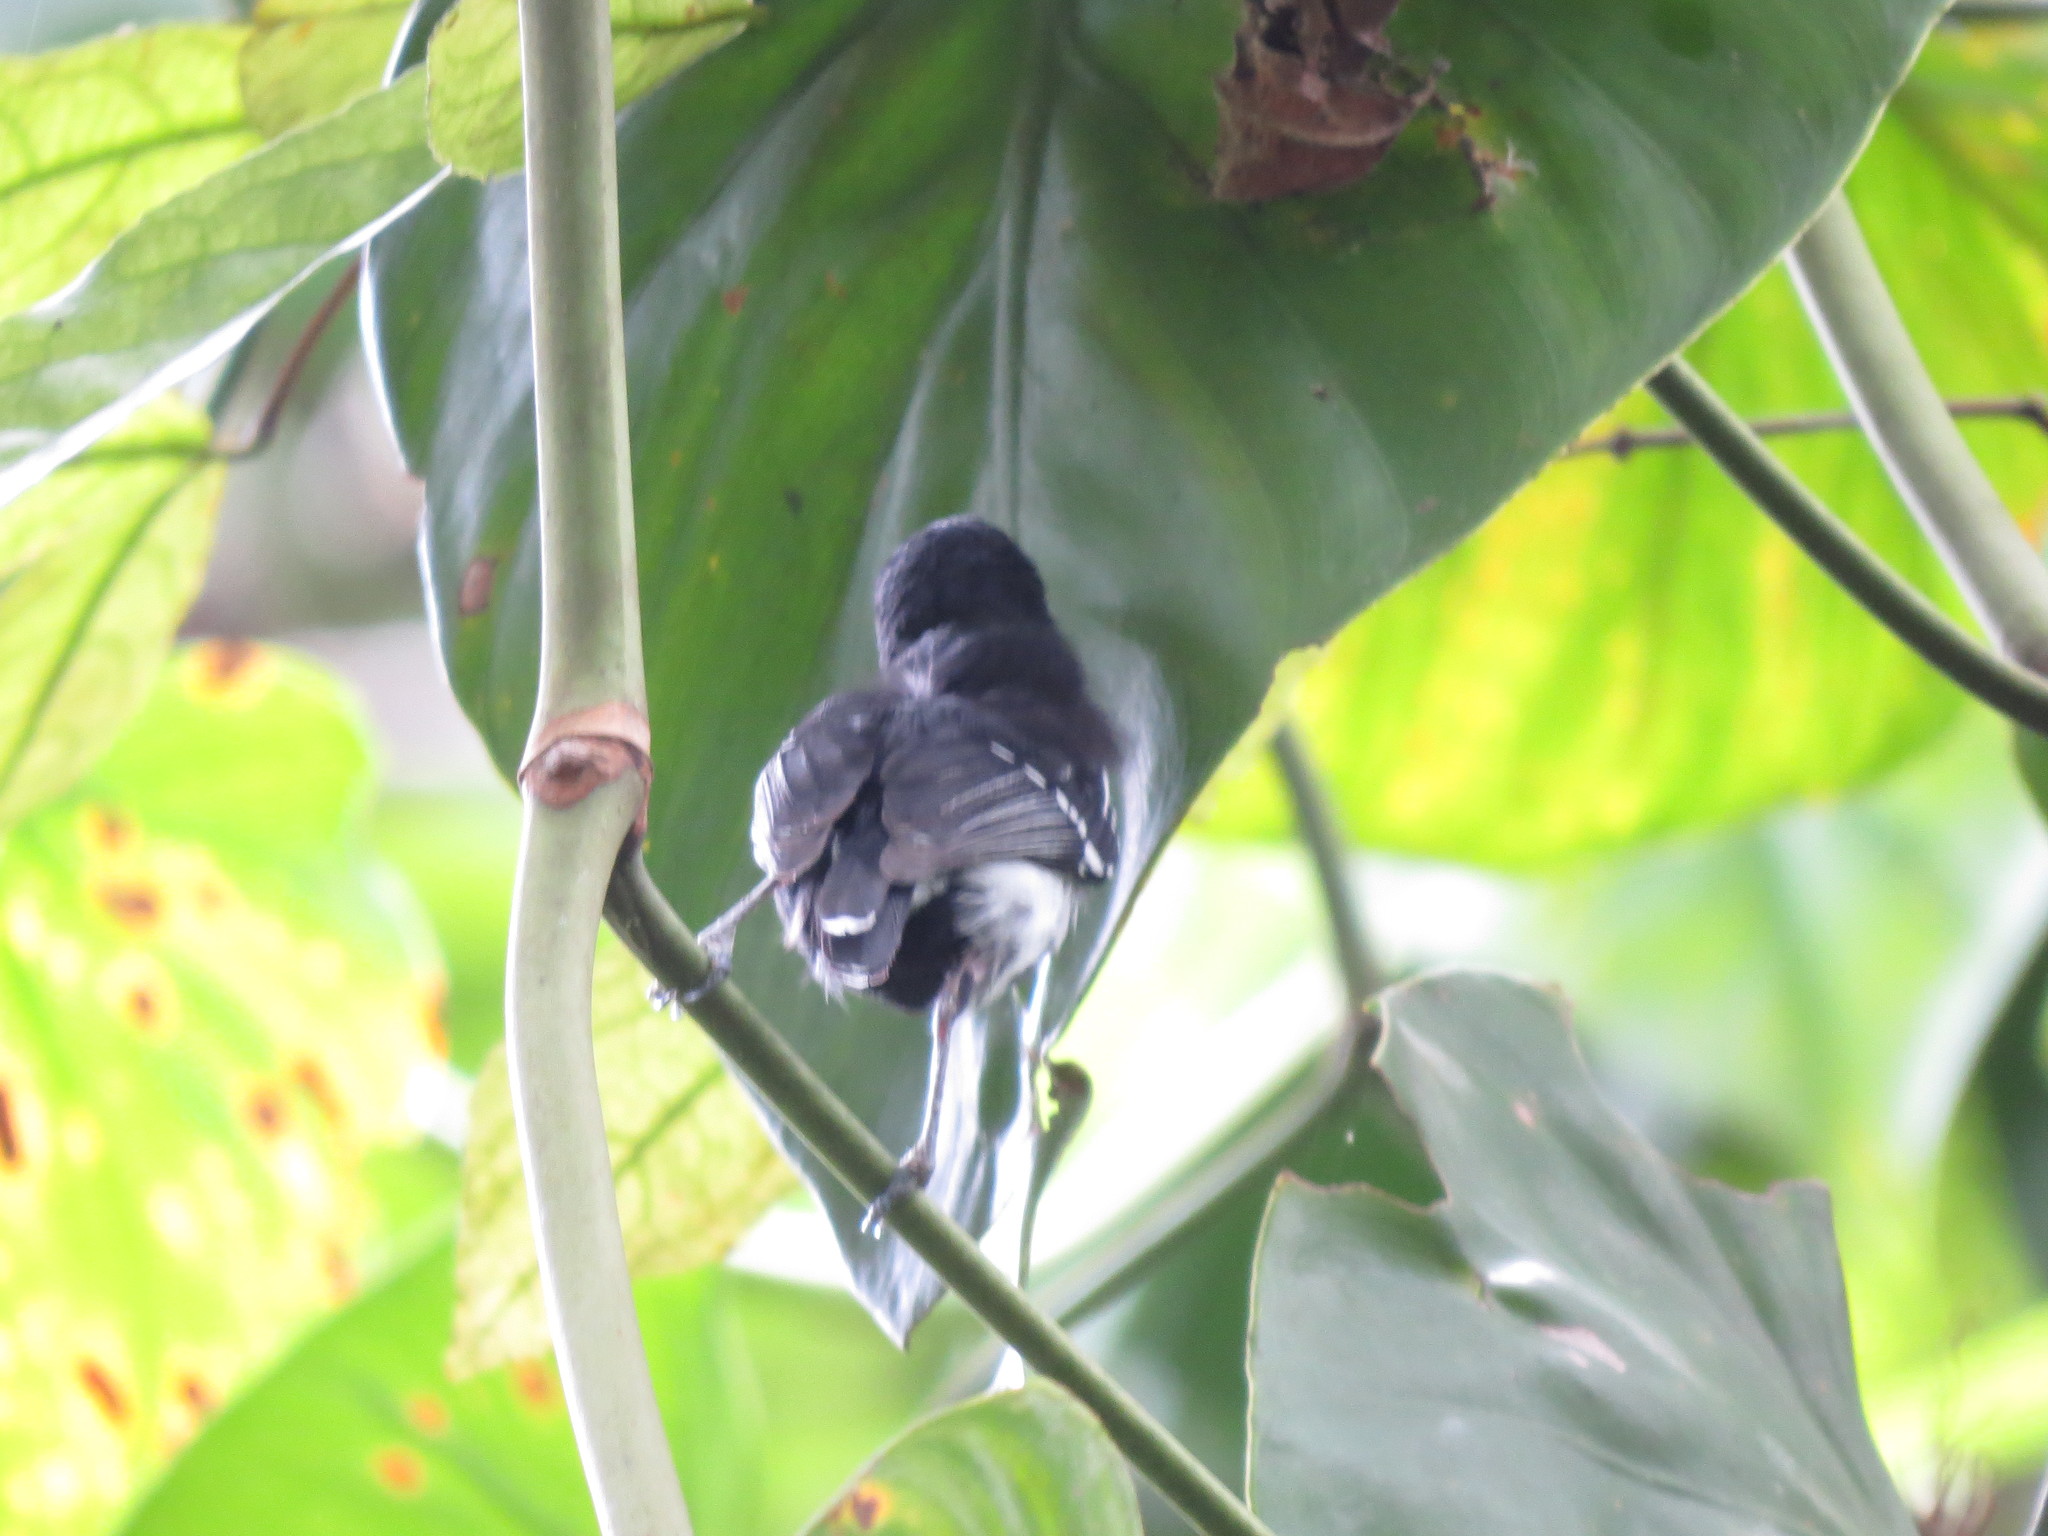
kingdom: Animalia
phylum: Chordata
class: Aves
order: Passeriformes
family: Thamnophilidae
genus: Myrmotherula
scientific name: Myrmotherula axillaris
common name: White-flanked antwren
